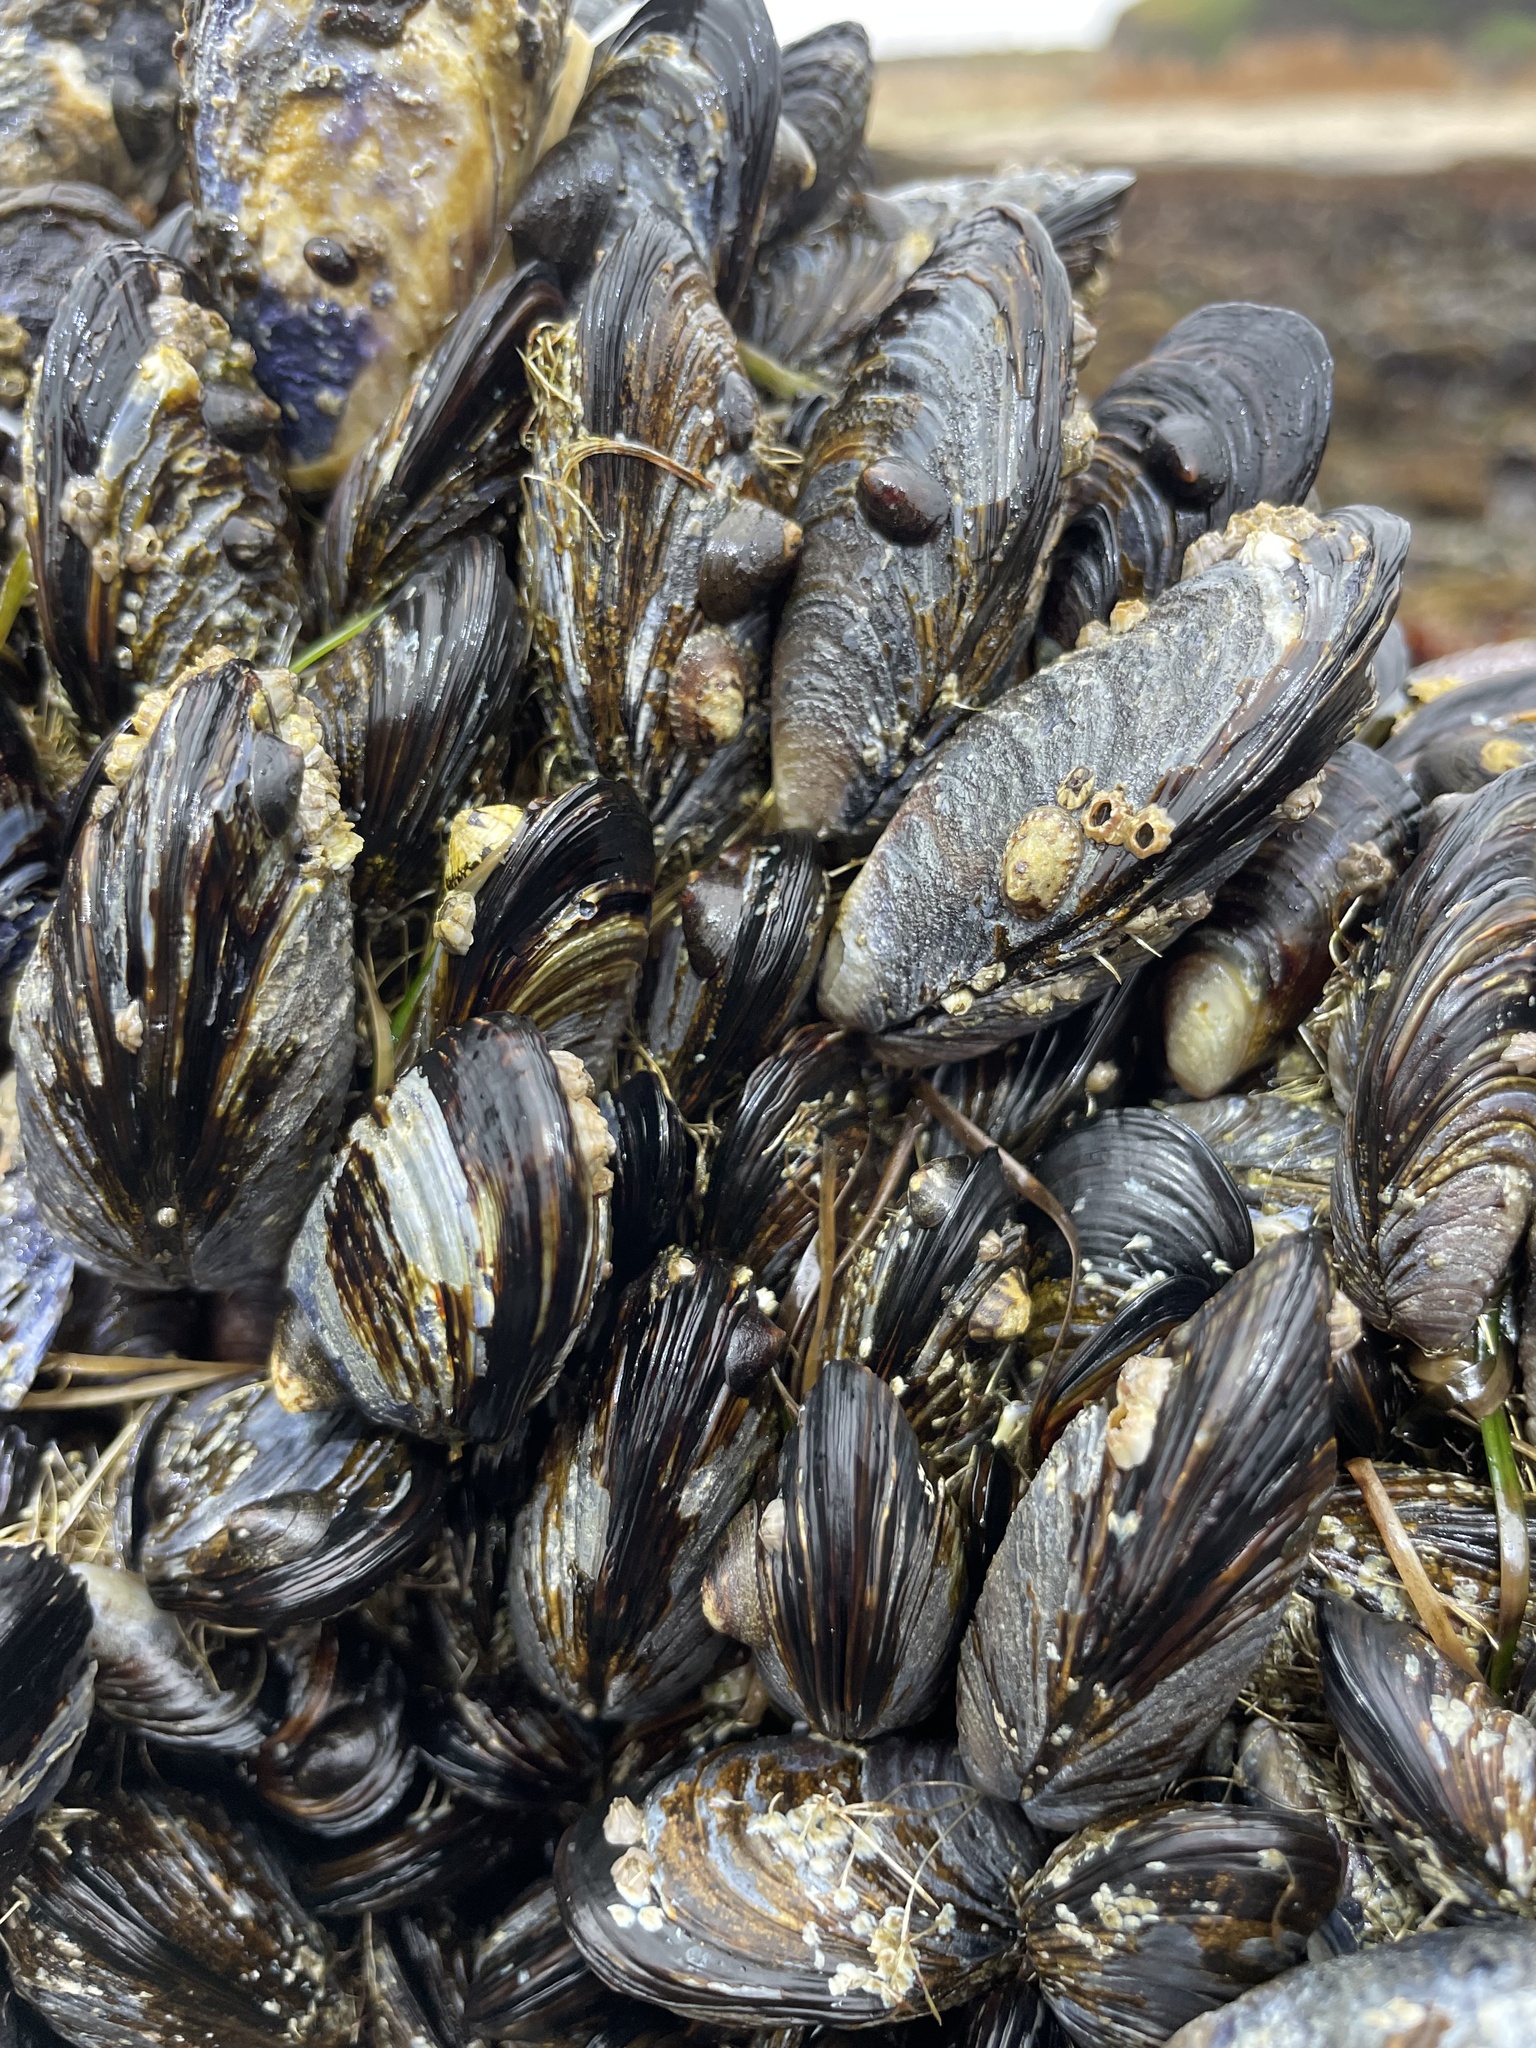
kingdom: Animalia
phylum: Mollusca
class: Bivalvia
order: Mytilida
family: Mytilidae
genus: Mytilus
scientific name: Mytilus californianus
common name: California mussel
